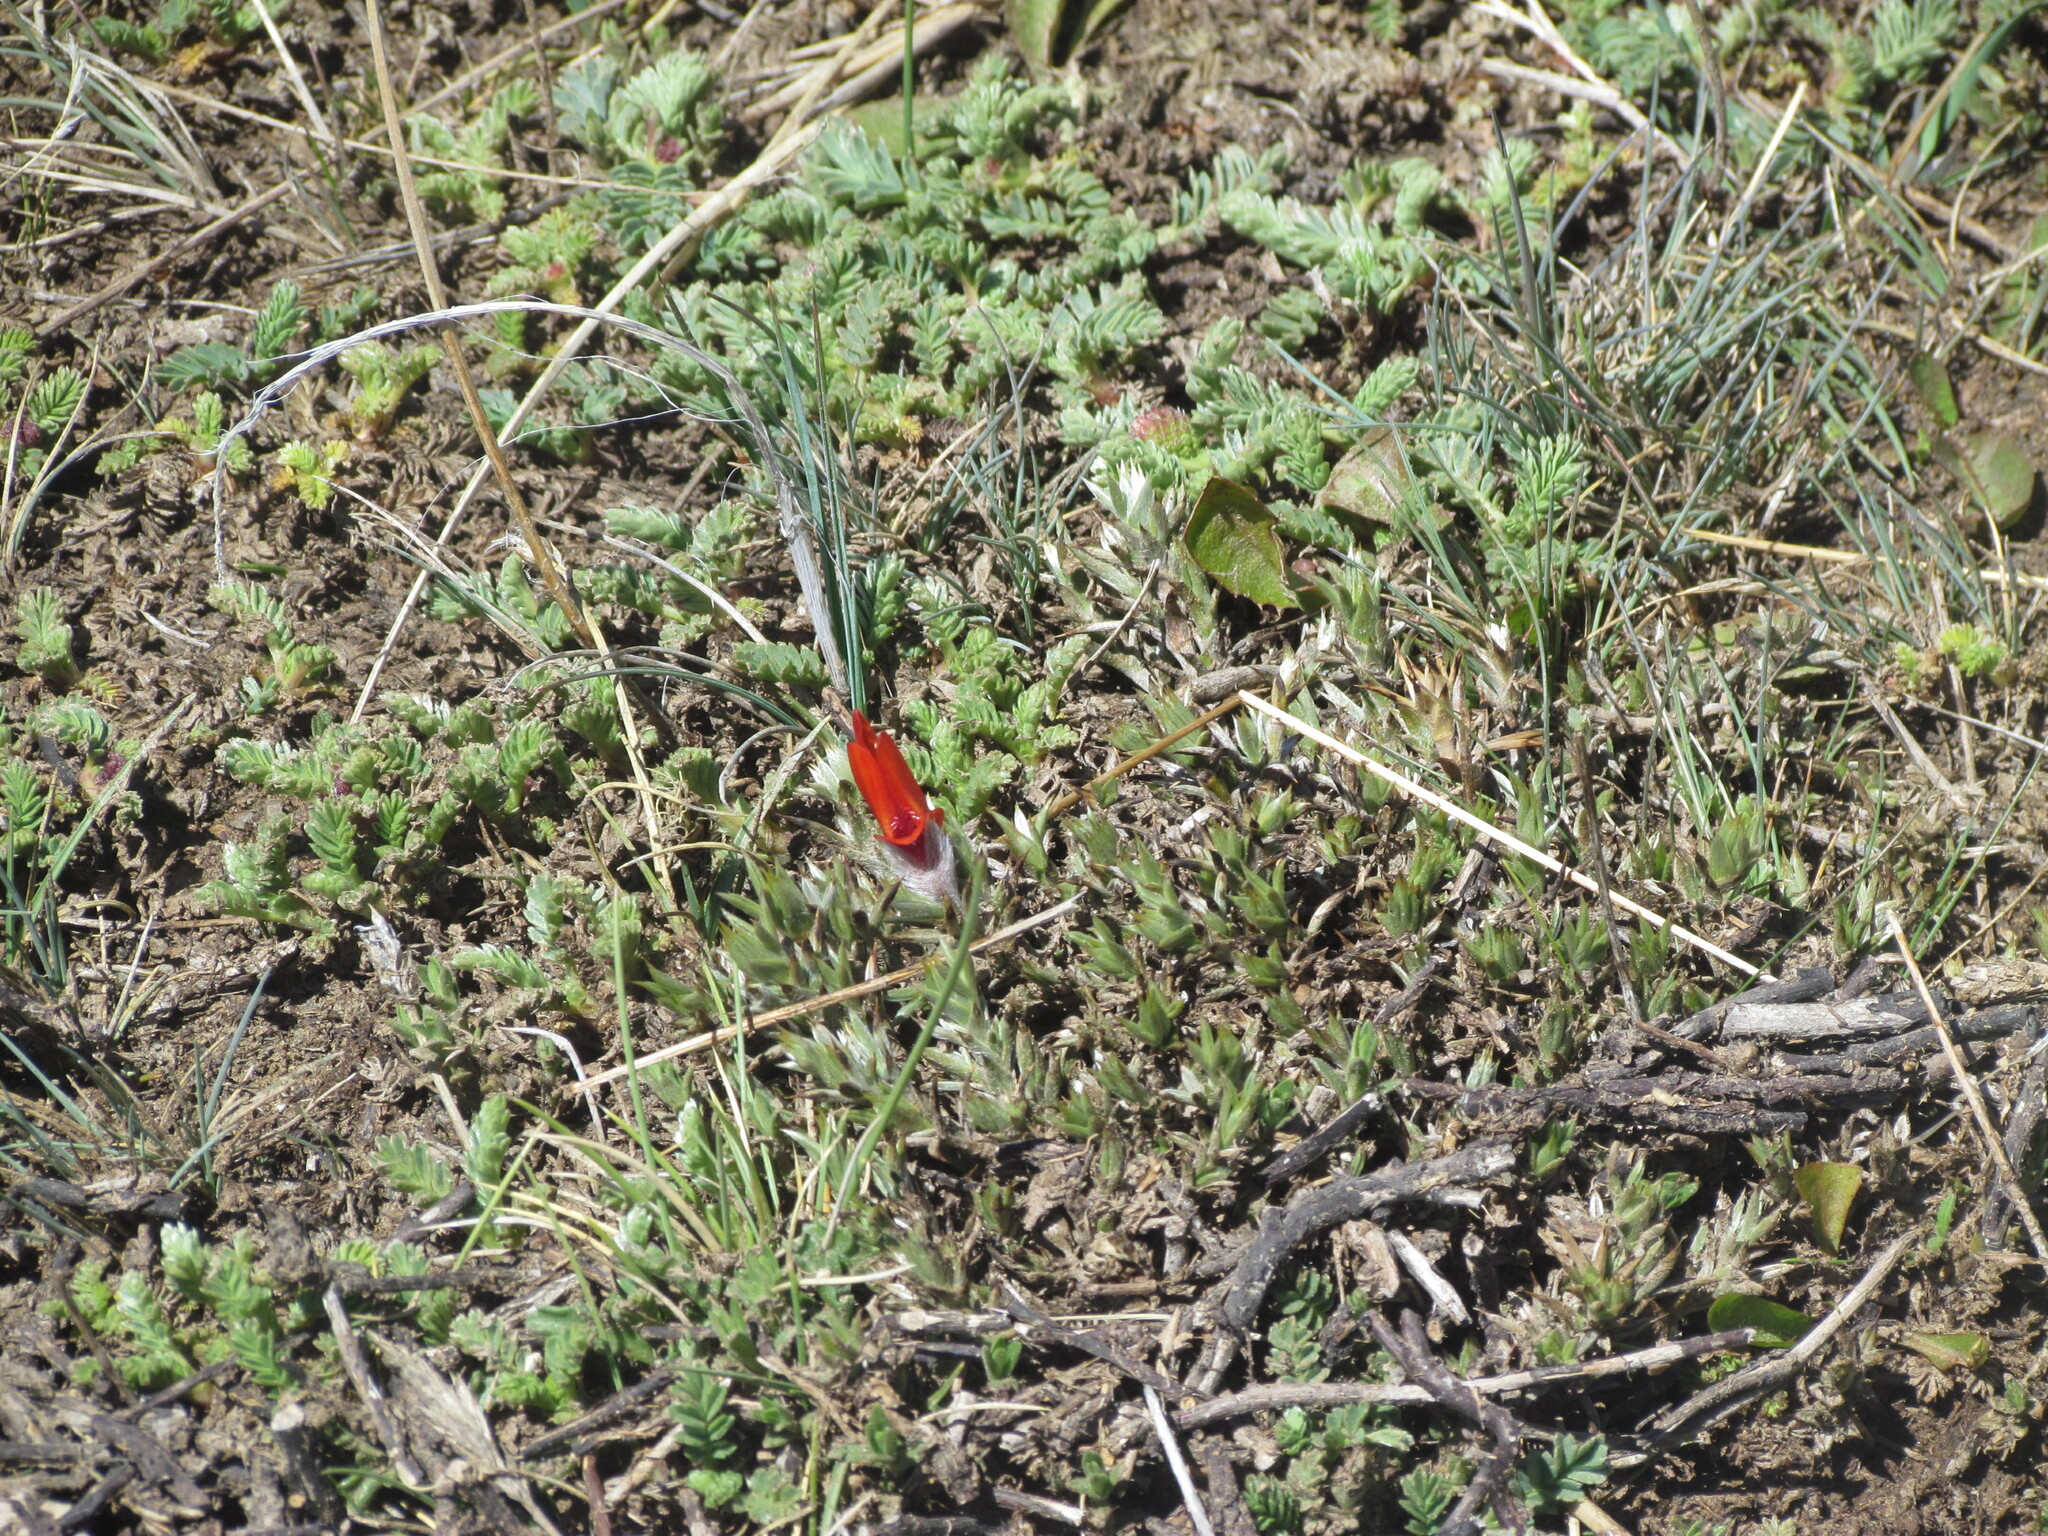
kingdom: Plantae
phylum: Tracheophyta
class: Magnoliopsida
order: Fabales
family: Fabaceae
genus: Anarthrophyllum
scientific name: Anarthrophyllum desideratum
